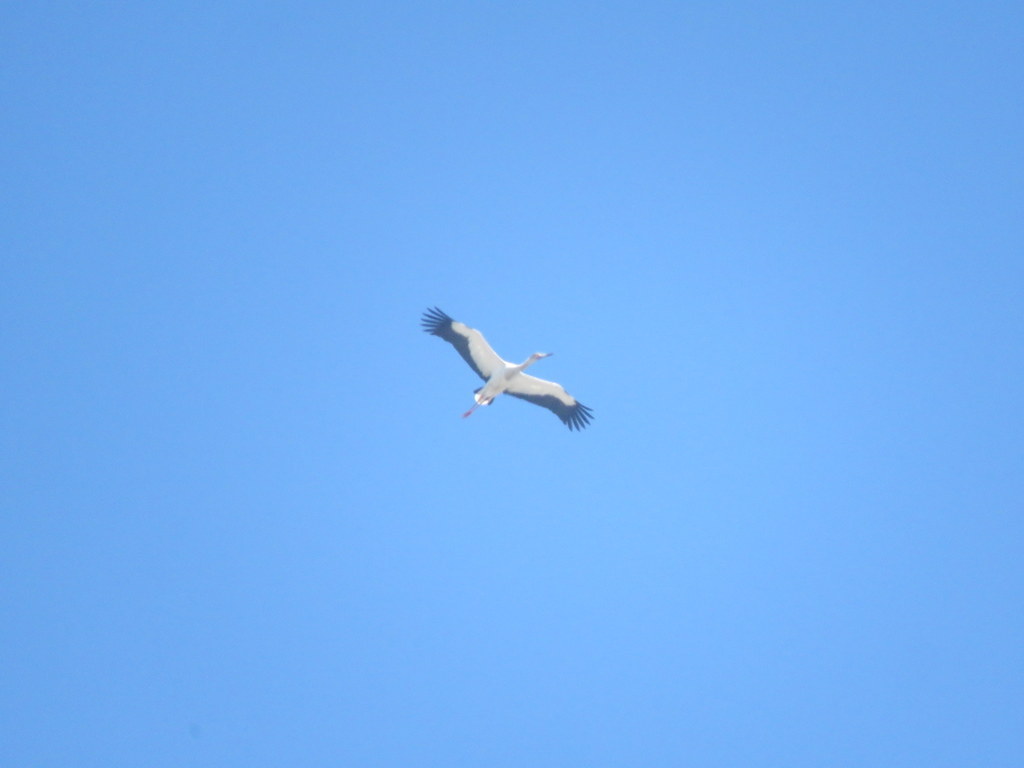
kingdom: Animalia
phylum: Chordata
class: Aves
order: Ciconiiformes
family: Ciconiidae
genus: Ciconia
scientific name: Ciconia maguari
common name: Maguari stork
